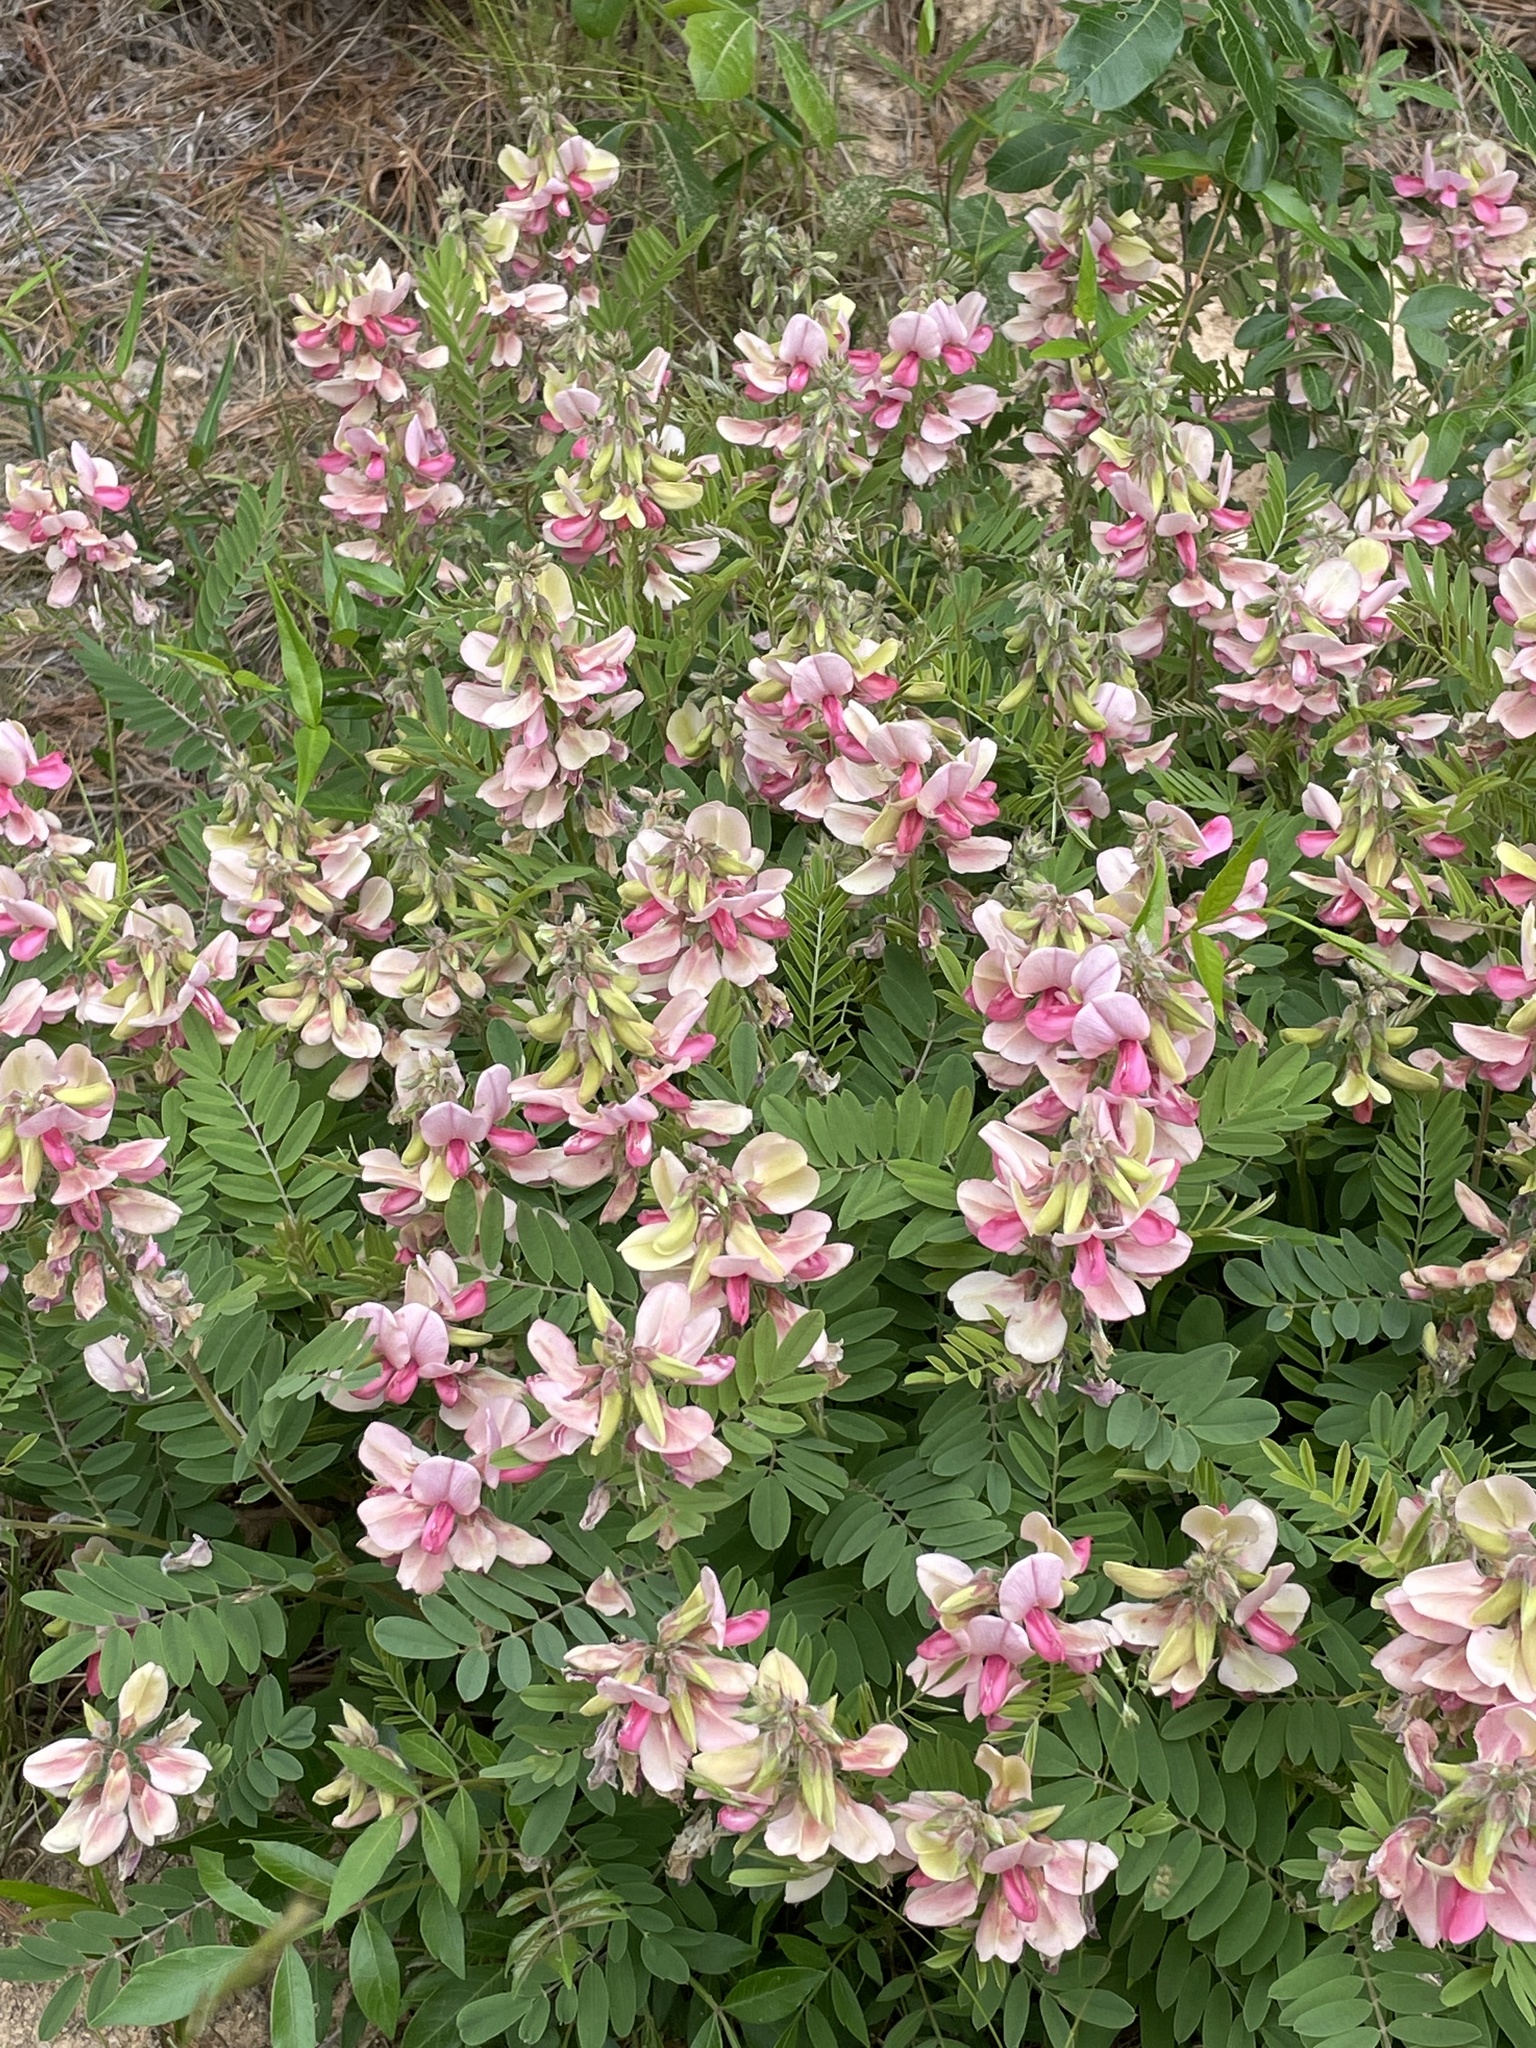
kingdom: Plantae
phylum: Tracheophyta
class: Magnoliopsida
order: Fabales
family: Fabaceae
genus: Tephrosia
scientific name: Tephrosia virginiana
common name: Rabbit-pea
